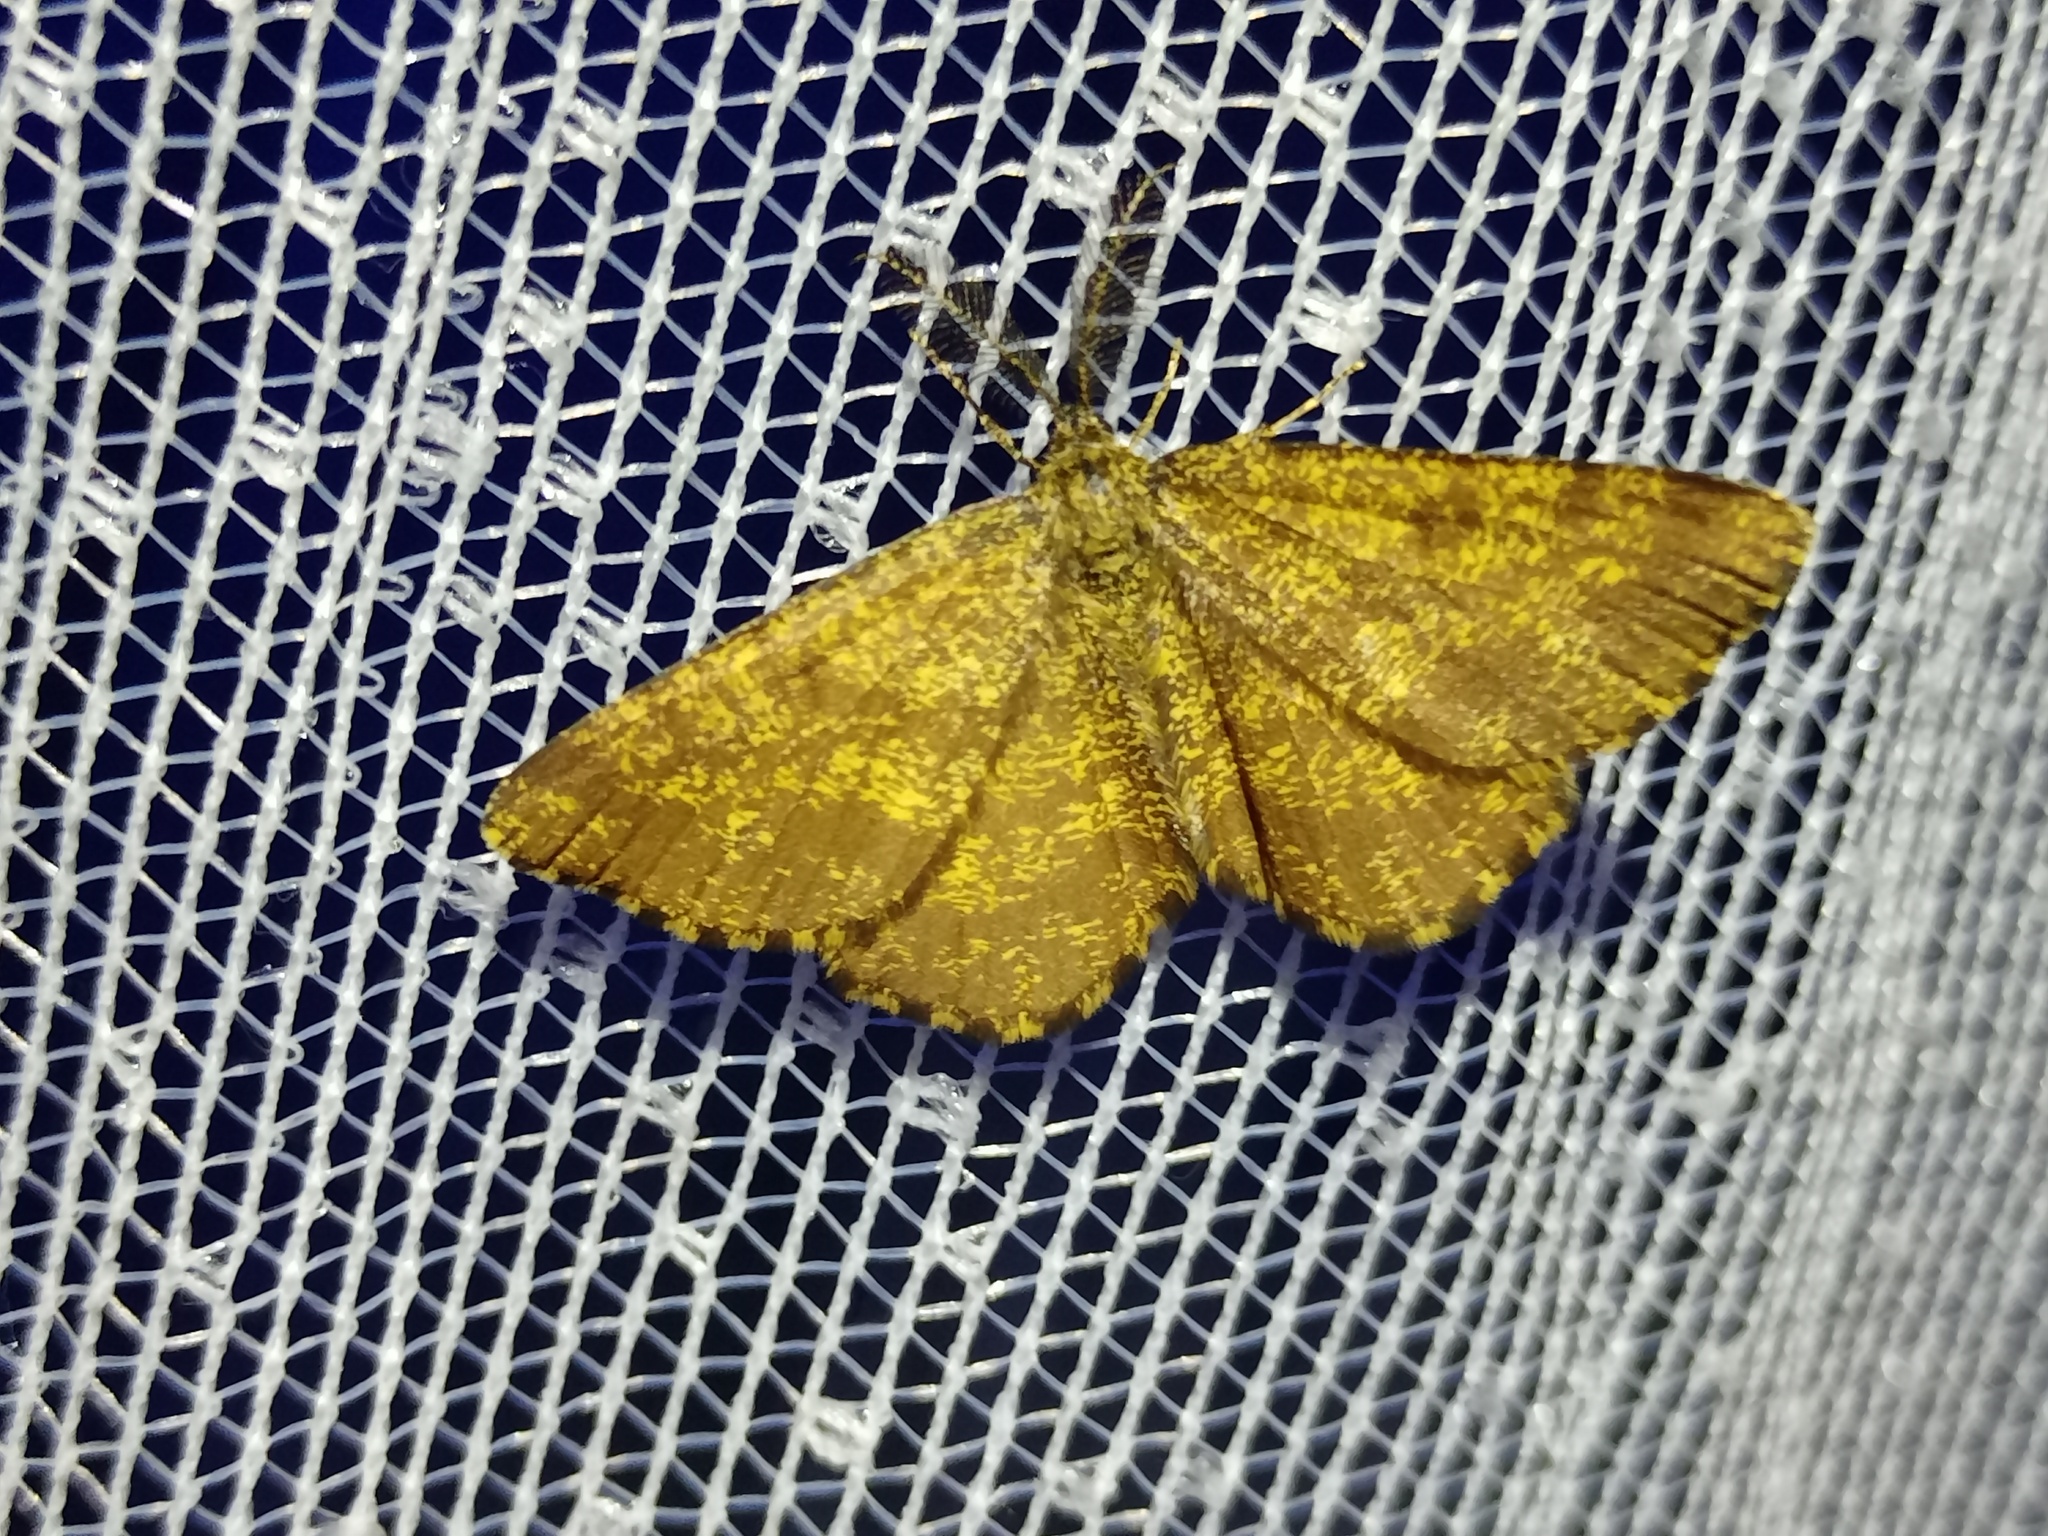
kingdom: Animalia
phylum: Arthropoda
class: Insecta
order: Lepidoptera
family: Geometridae
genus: Ematurga
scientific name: Ematurga atomaria
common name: Common heath
